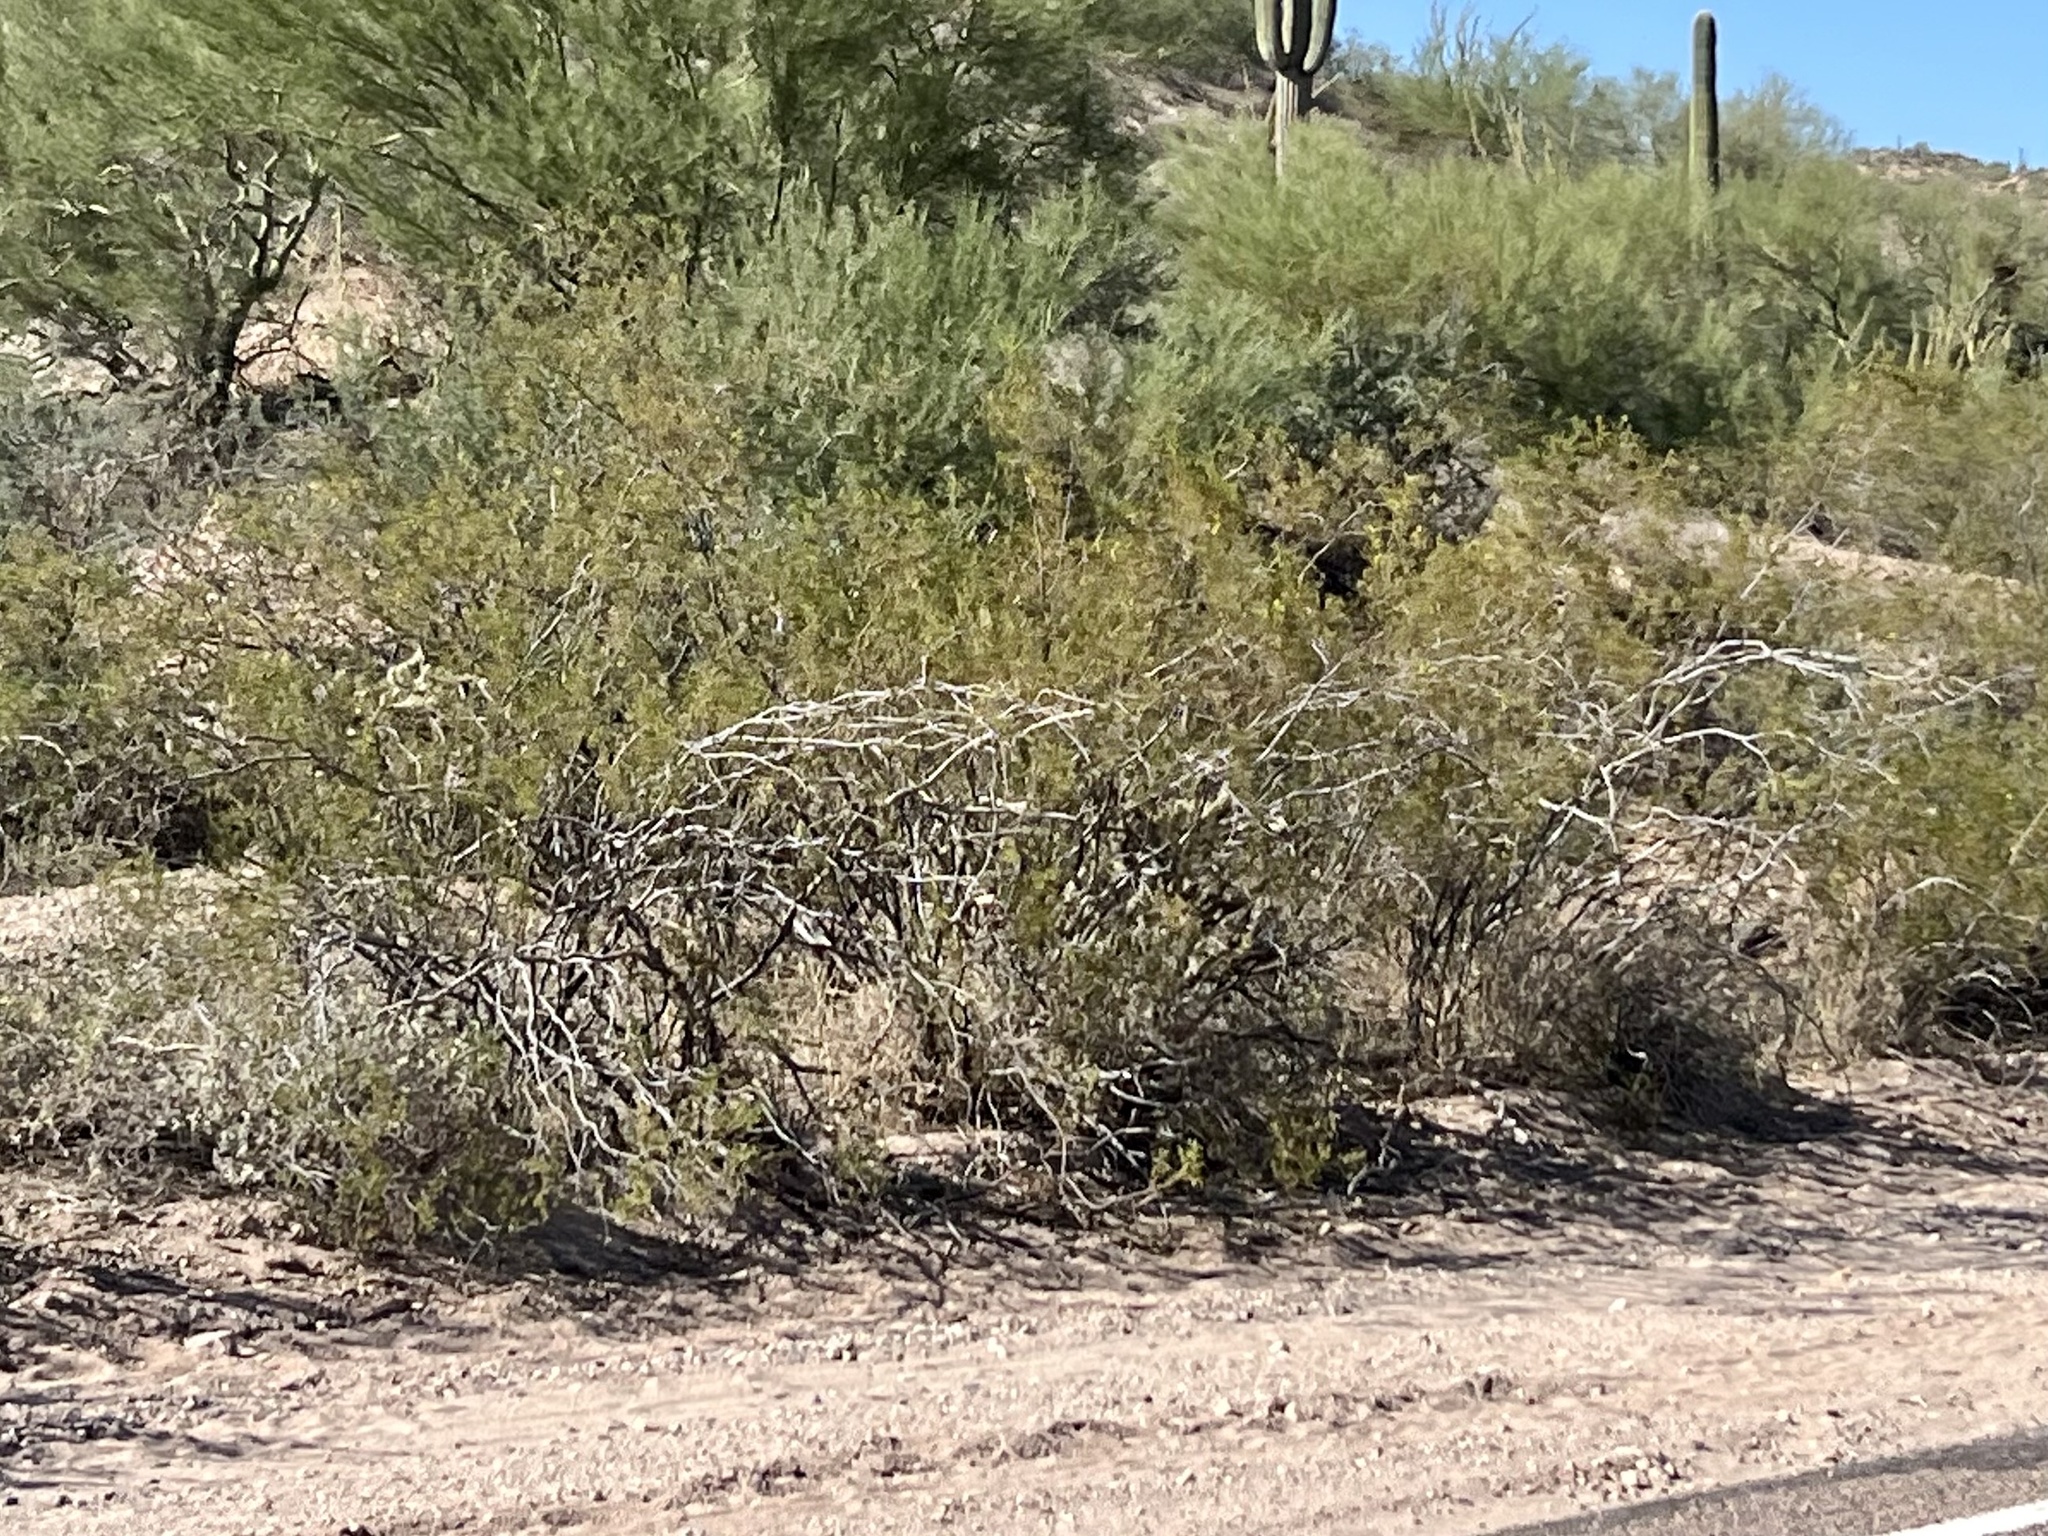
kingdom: Plantae
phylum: Tracheophyta
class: Magnoliopsida
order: Zygophyllales
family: Zygophyllaceae
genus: Larrea
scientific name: Larrea tridentata
